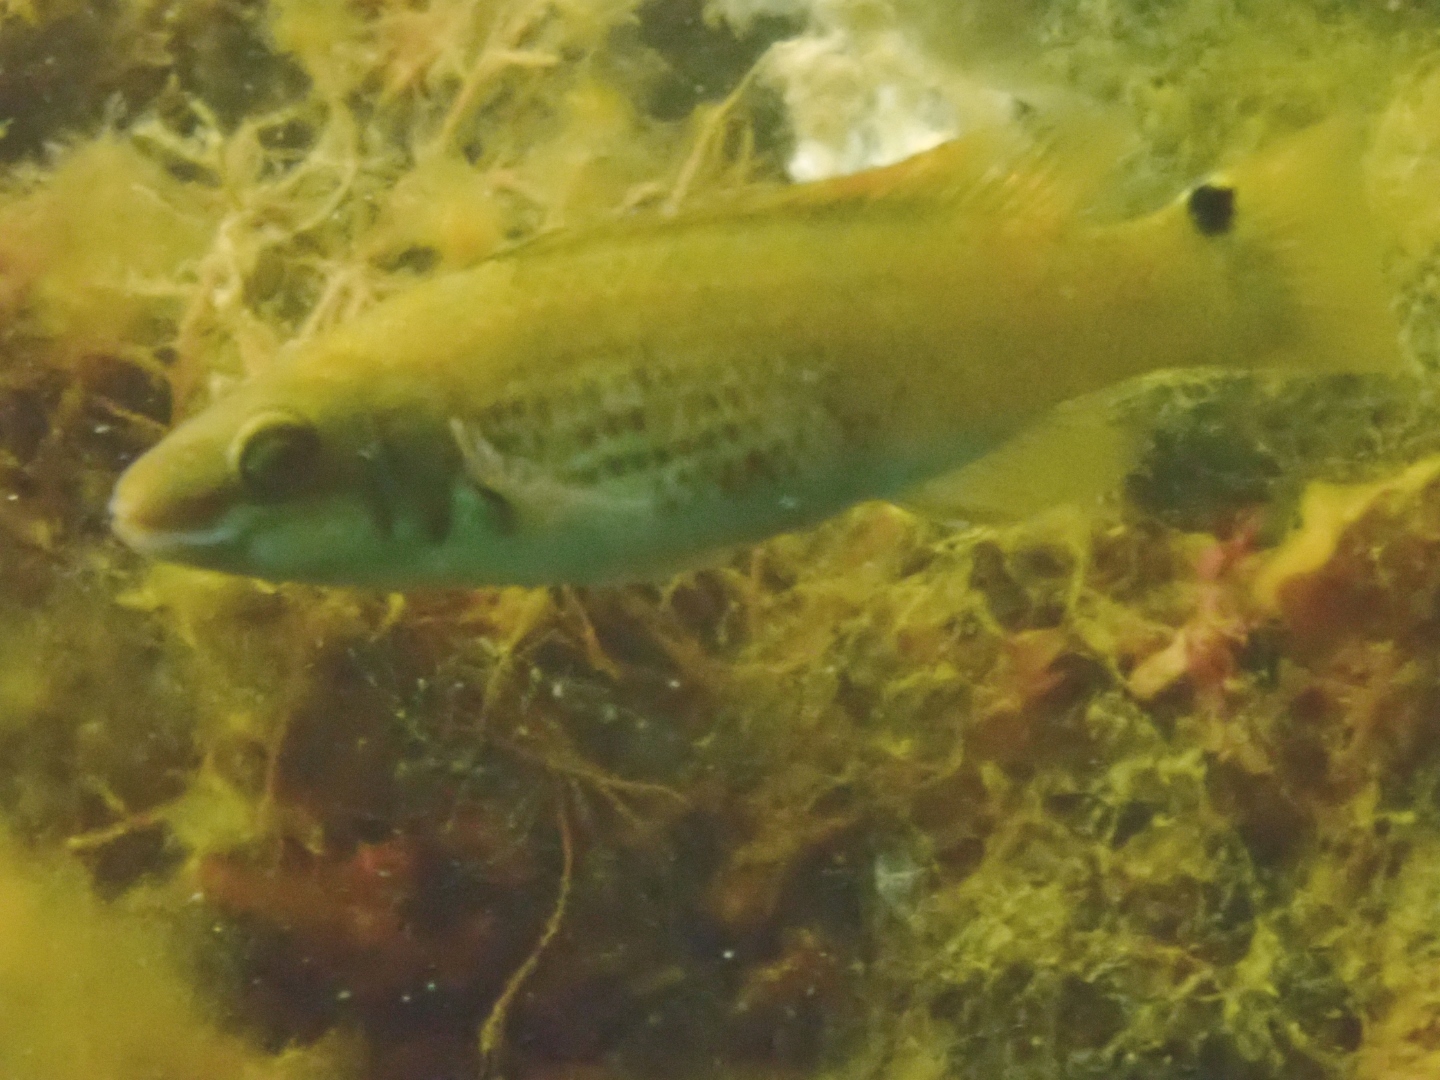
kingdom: Animalia
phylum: Chordata
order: Perciformes
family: Labridae
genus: Ctenolabrus
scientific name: Ctenolabrus rupestris
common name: Goldsinny
